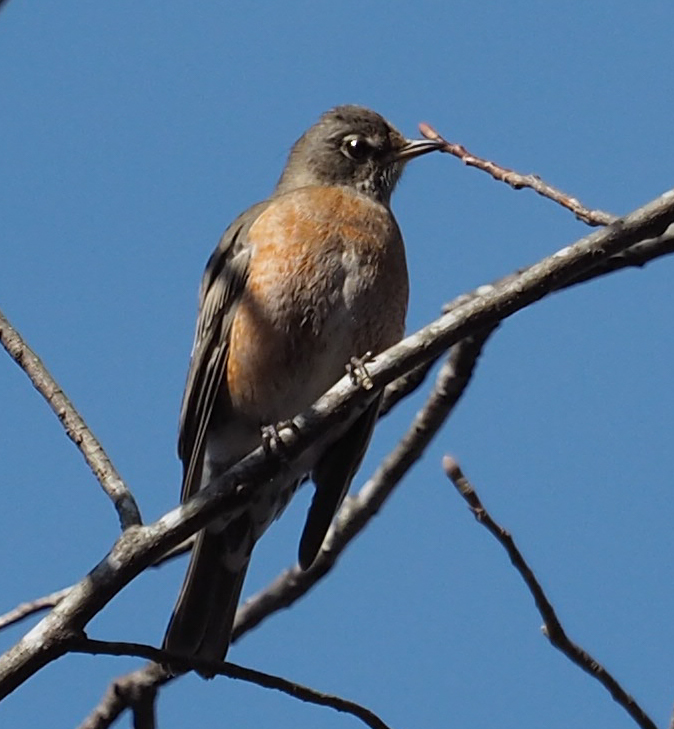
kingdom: Animalia
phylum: Chordata
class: Aves
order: Passeriformes
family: Turdidae
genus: Turdus
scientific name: Turdus migratorius
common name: American robin
